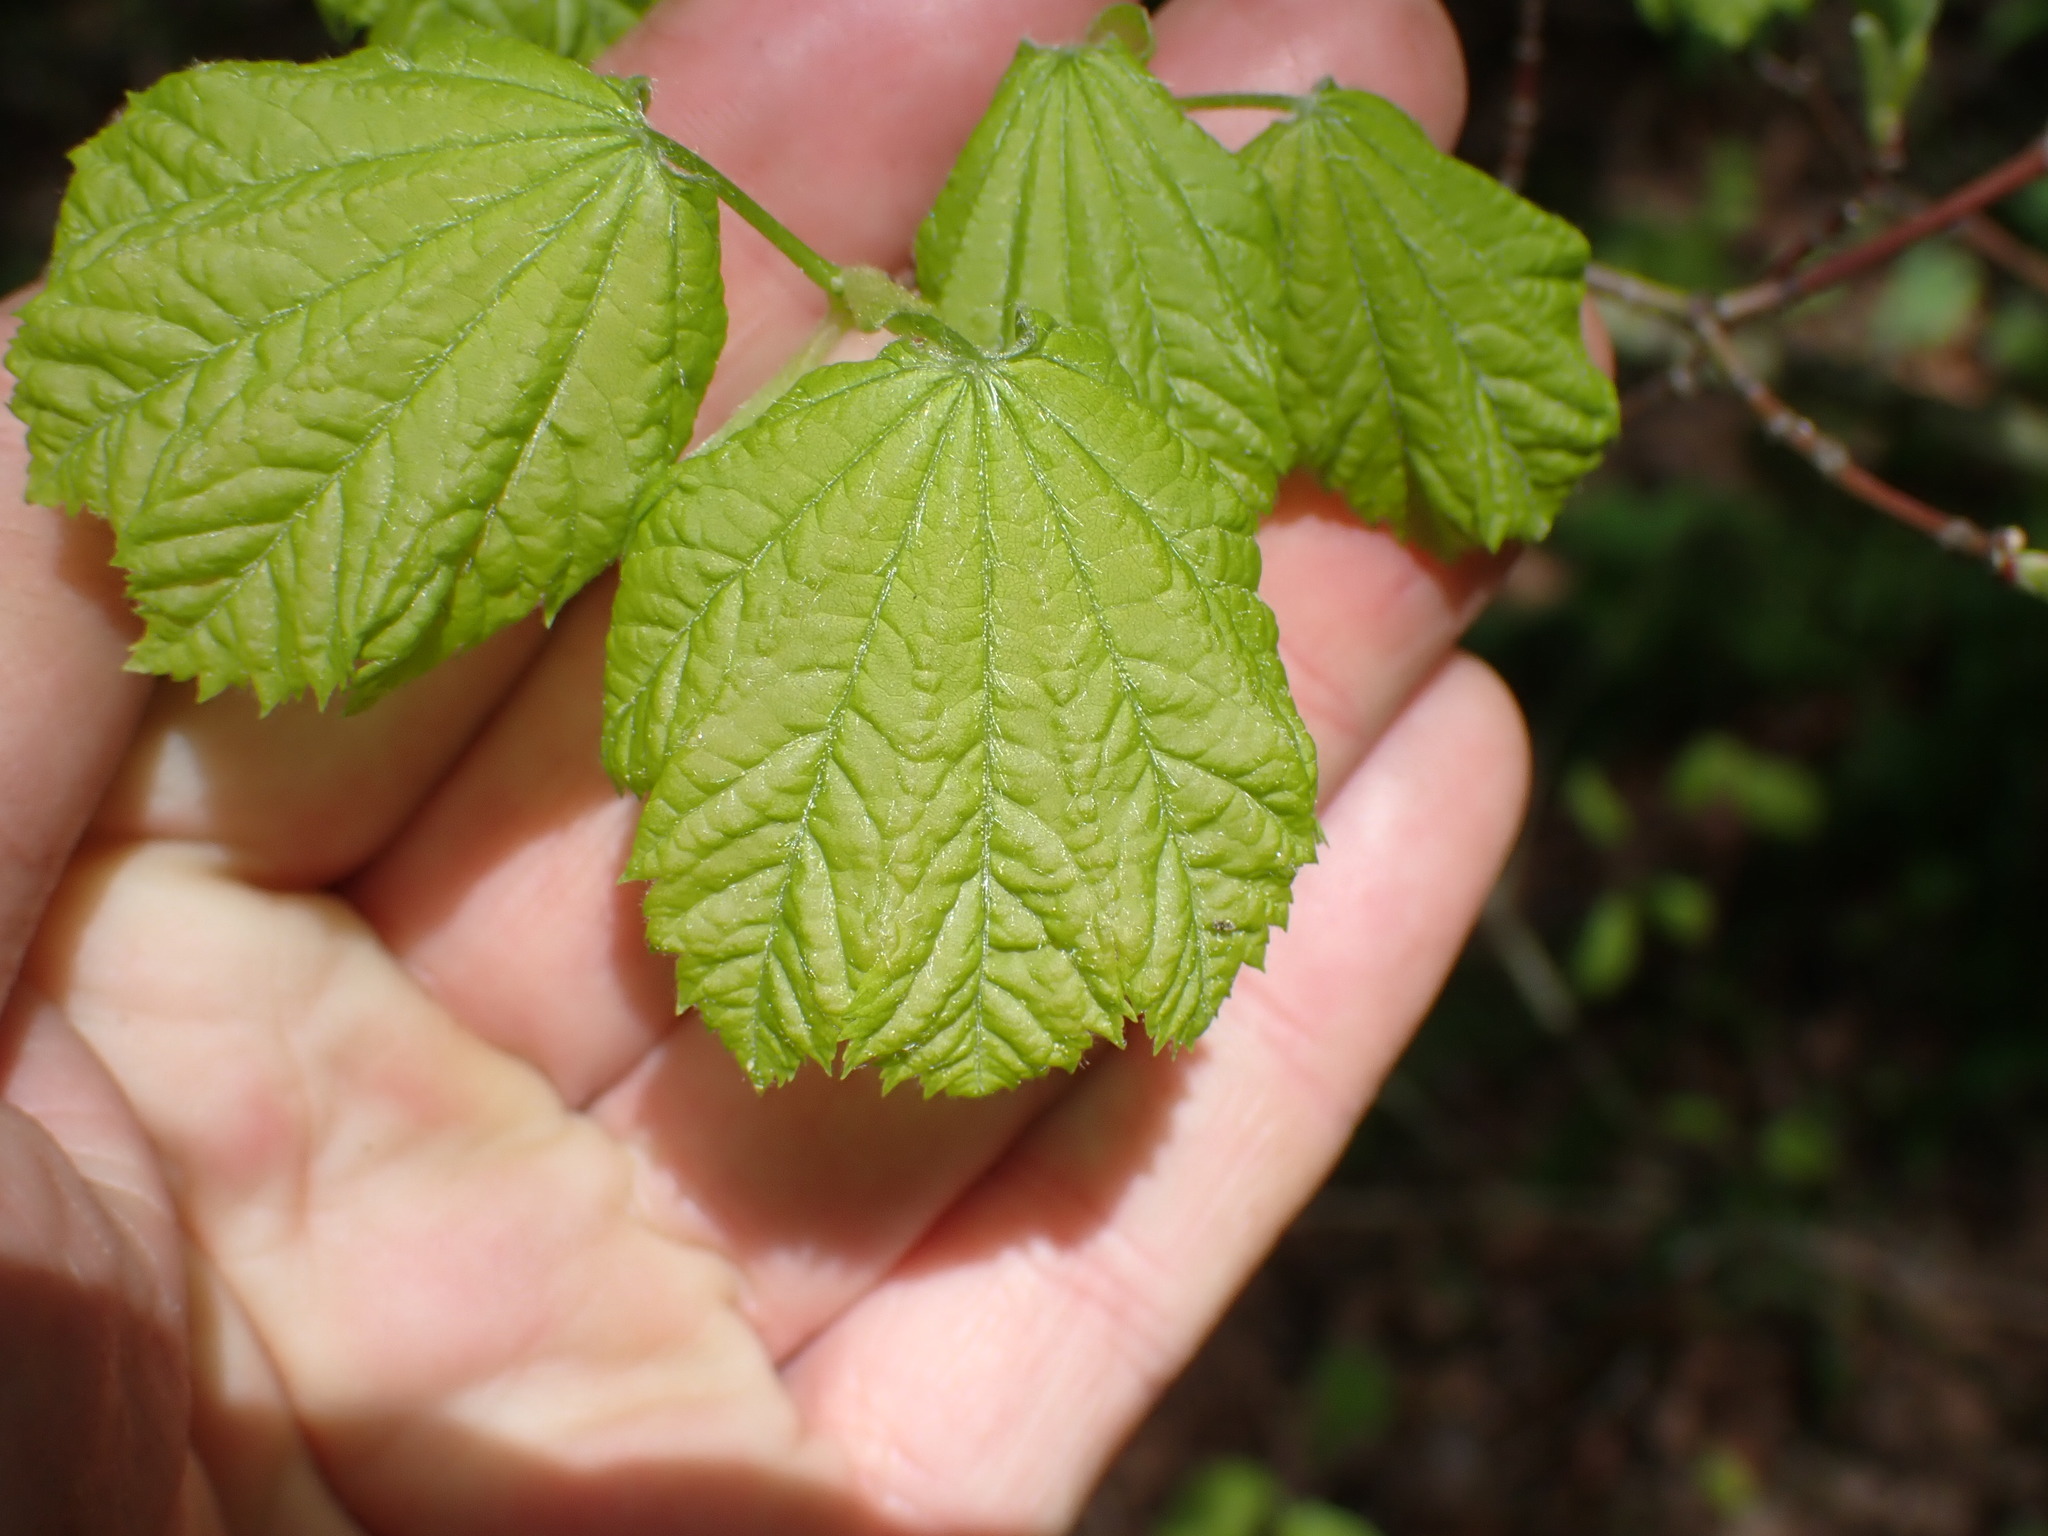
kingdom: Plantae
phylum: Tracheophyta
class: Magnoliopsida
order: Sapindales
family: Sapindaceae
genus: Acer
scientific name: Acer circinatum
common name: Vine maple
